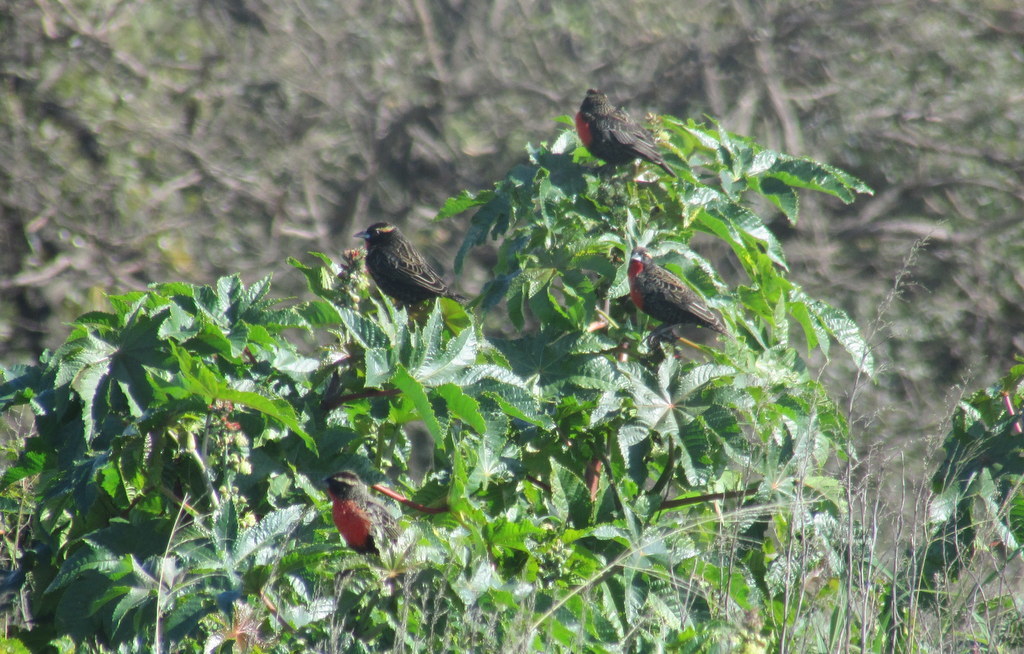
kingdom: Animalia
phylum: Chordata
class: Aves
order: Passeriformes
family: Icteridae
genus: Sturnella
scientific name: Sturnella superciliaris
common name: White-browed blackbird
